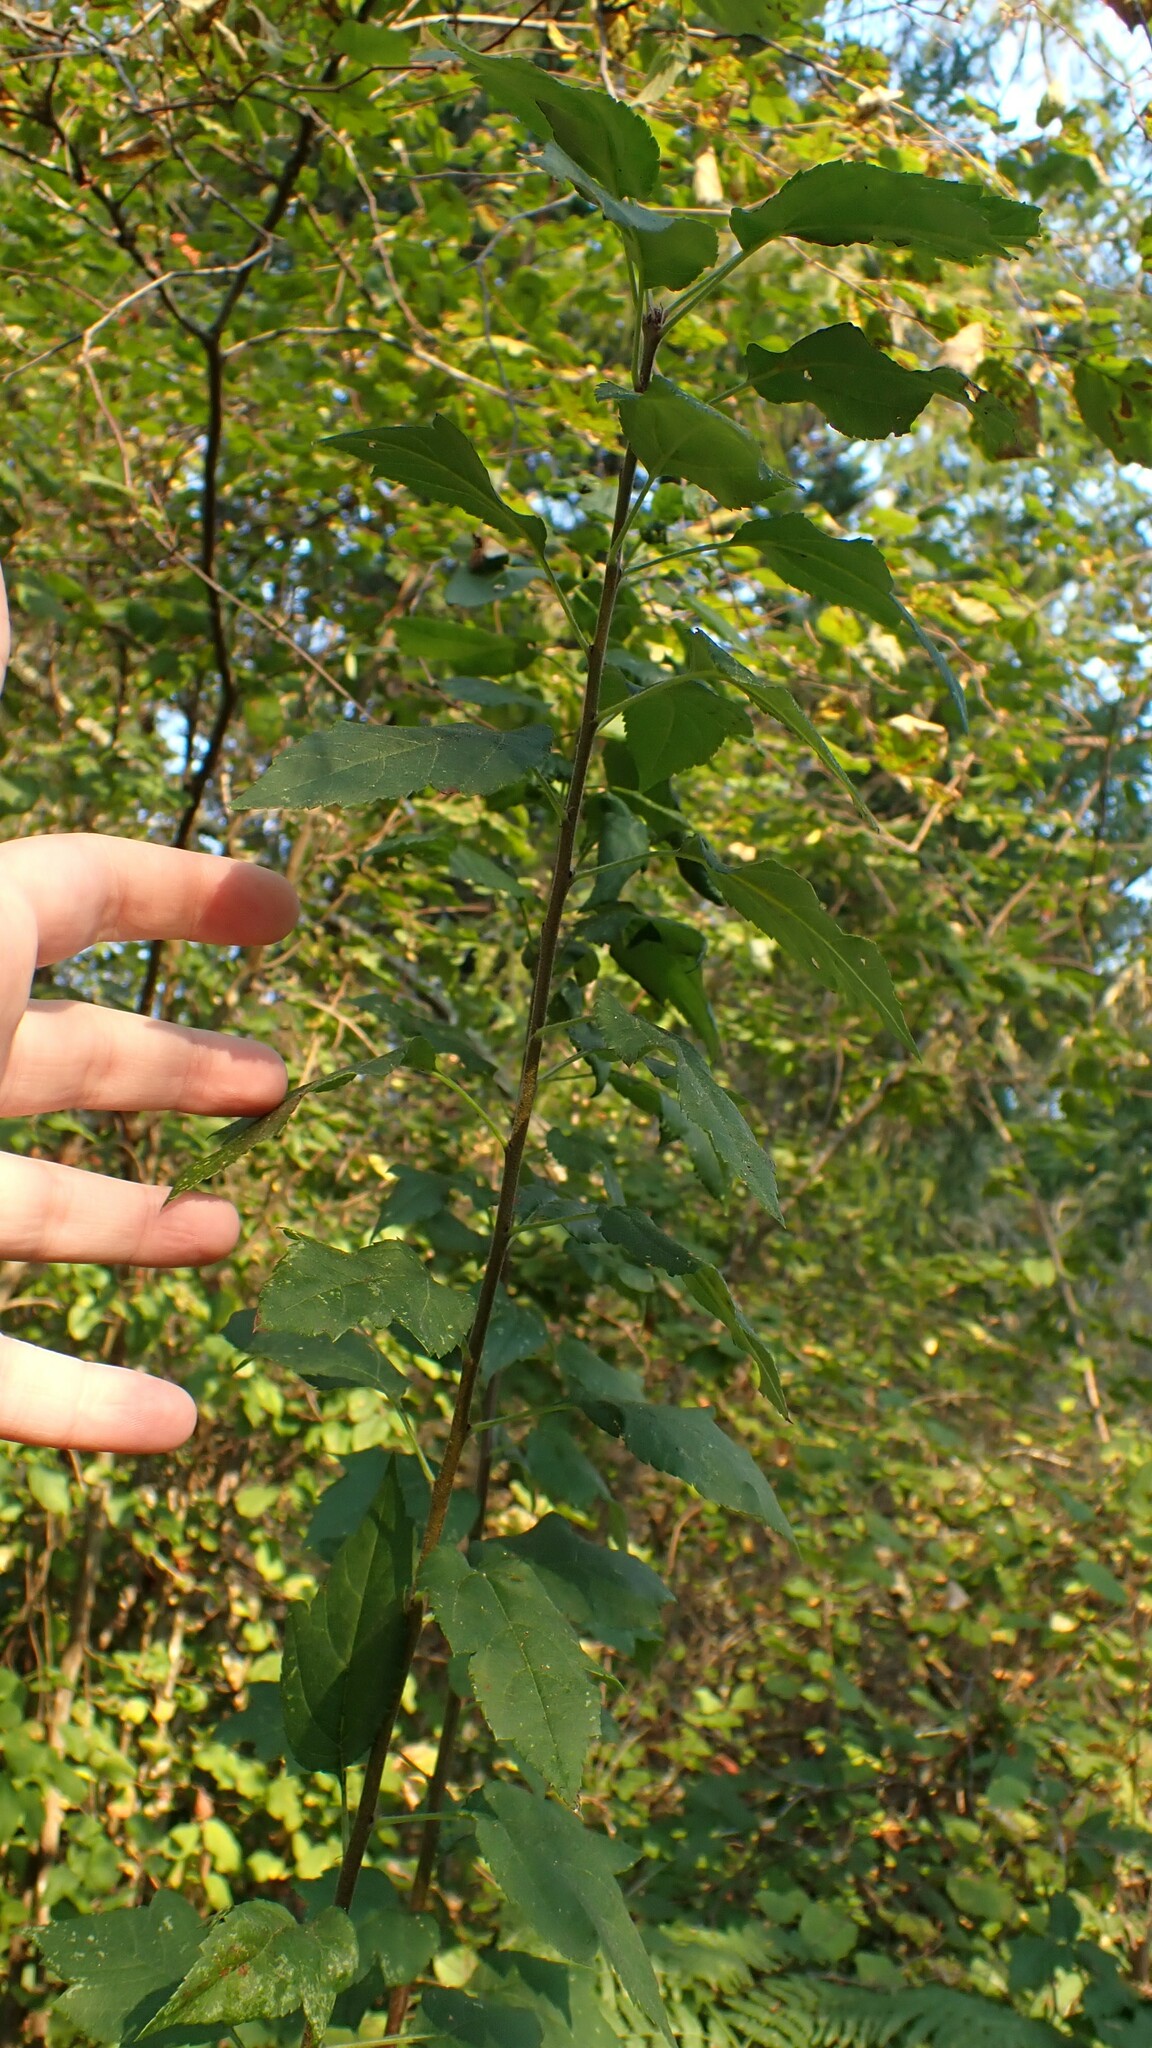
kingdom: Plantae
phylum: Tracheophyta
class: Magnoliopsida
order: Rosales
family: Rosaceae
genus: Malus
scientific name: Malus fusca
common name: Oregon crab apple
